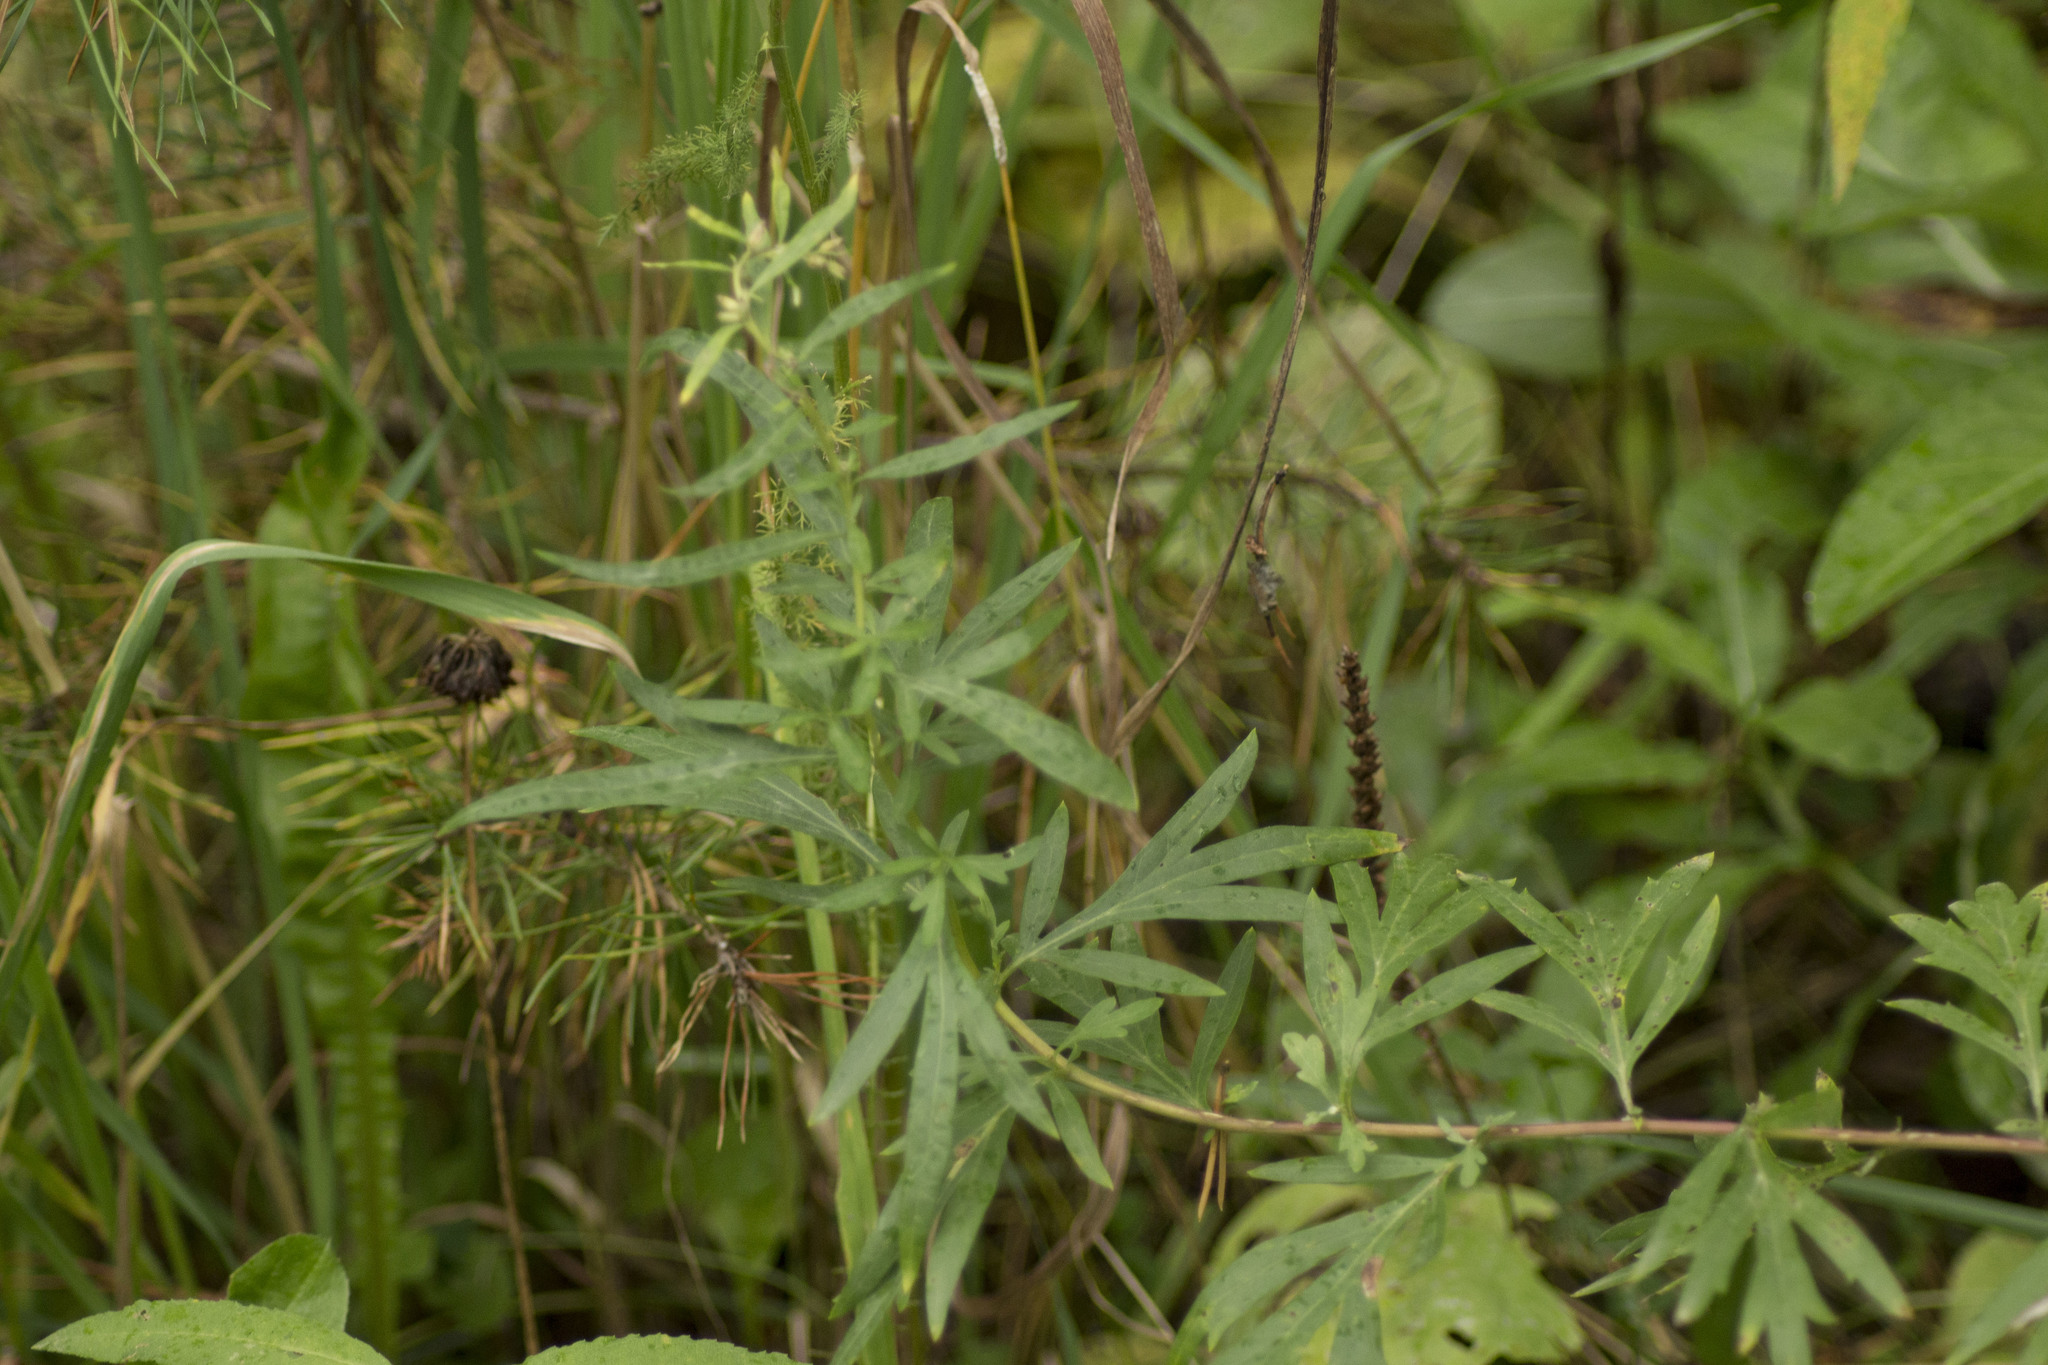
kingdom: Plantae
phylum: Tracheophyta
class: Magnoliopsida
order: Asterales
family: Asteraceae
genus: Artemisia
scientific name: Artemisia vulgaris
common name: Mugwort
